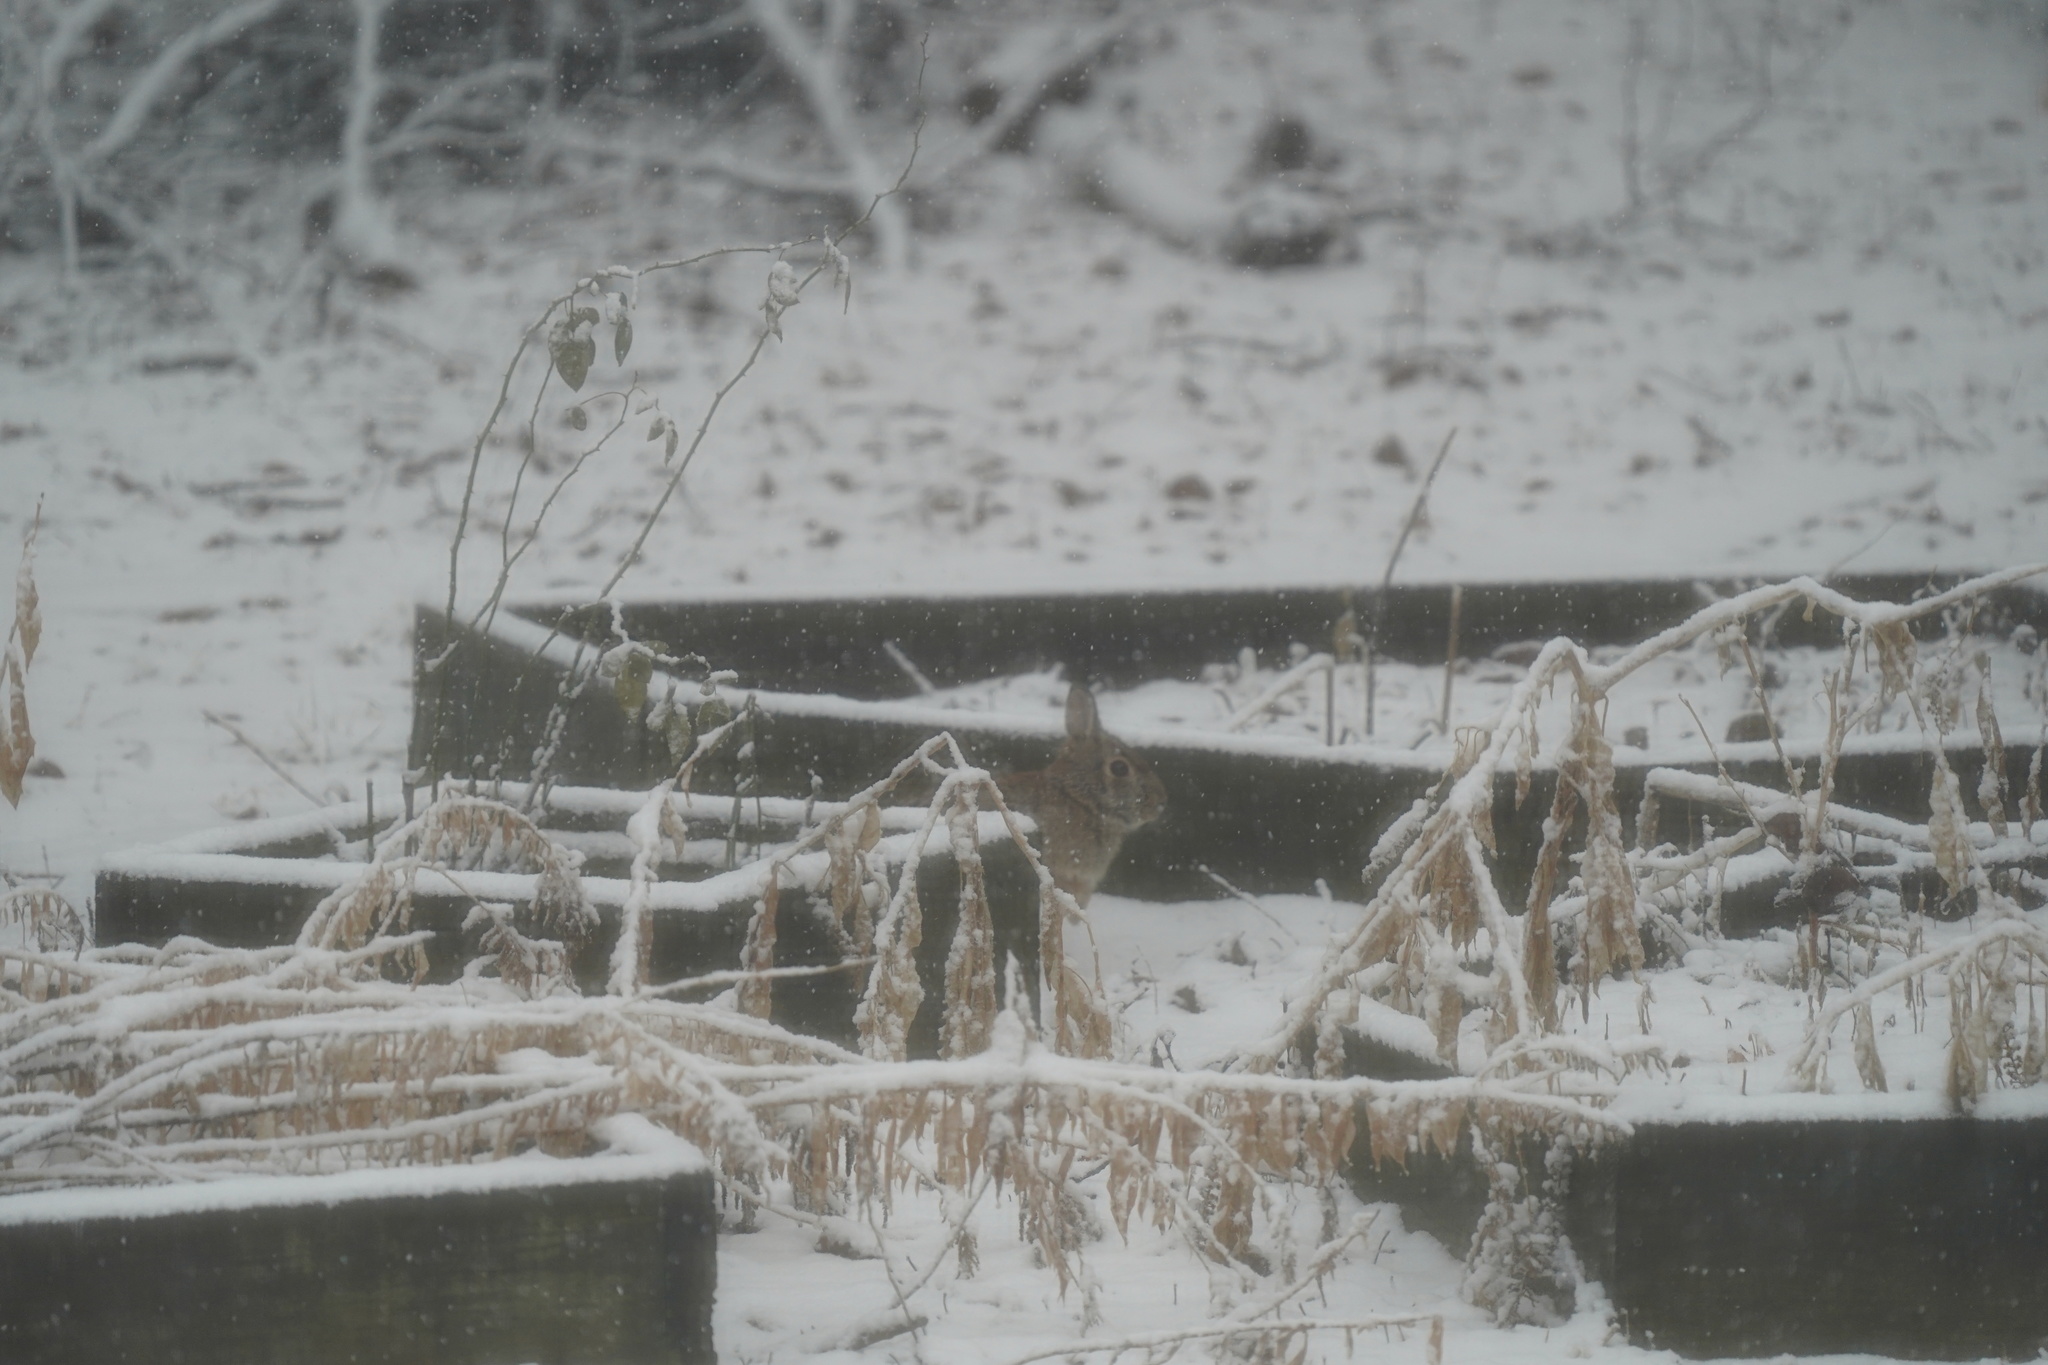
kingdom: Animalia
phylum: Chordata
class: Mammalia
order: Lagomorpha
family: Leporidae
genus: Sylvilagus
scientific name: Sylvilagus floridanus
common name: Eastern cottontail
